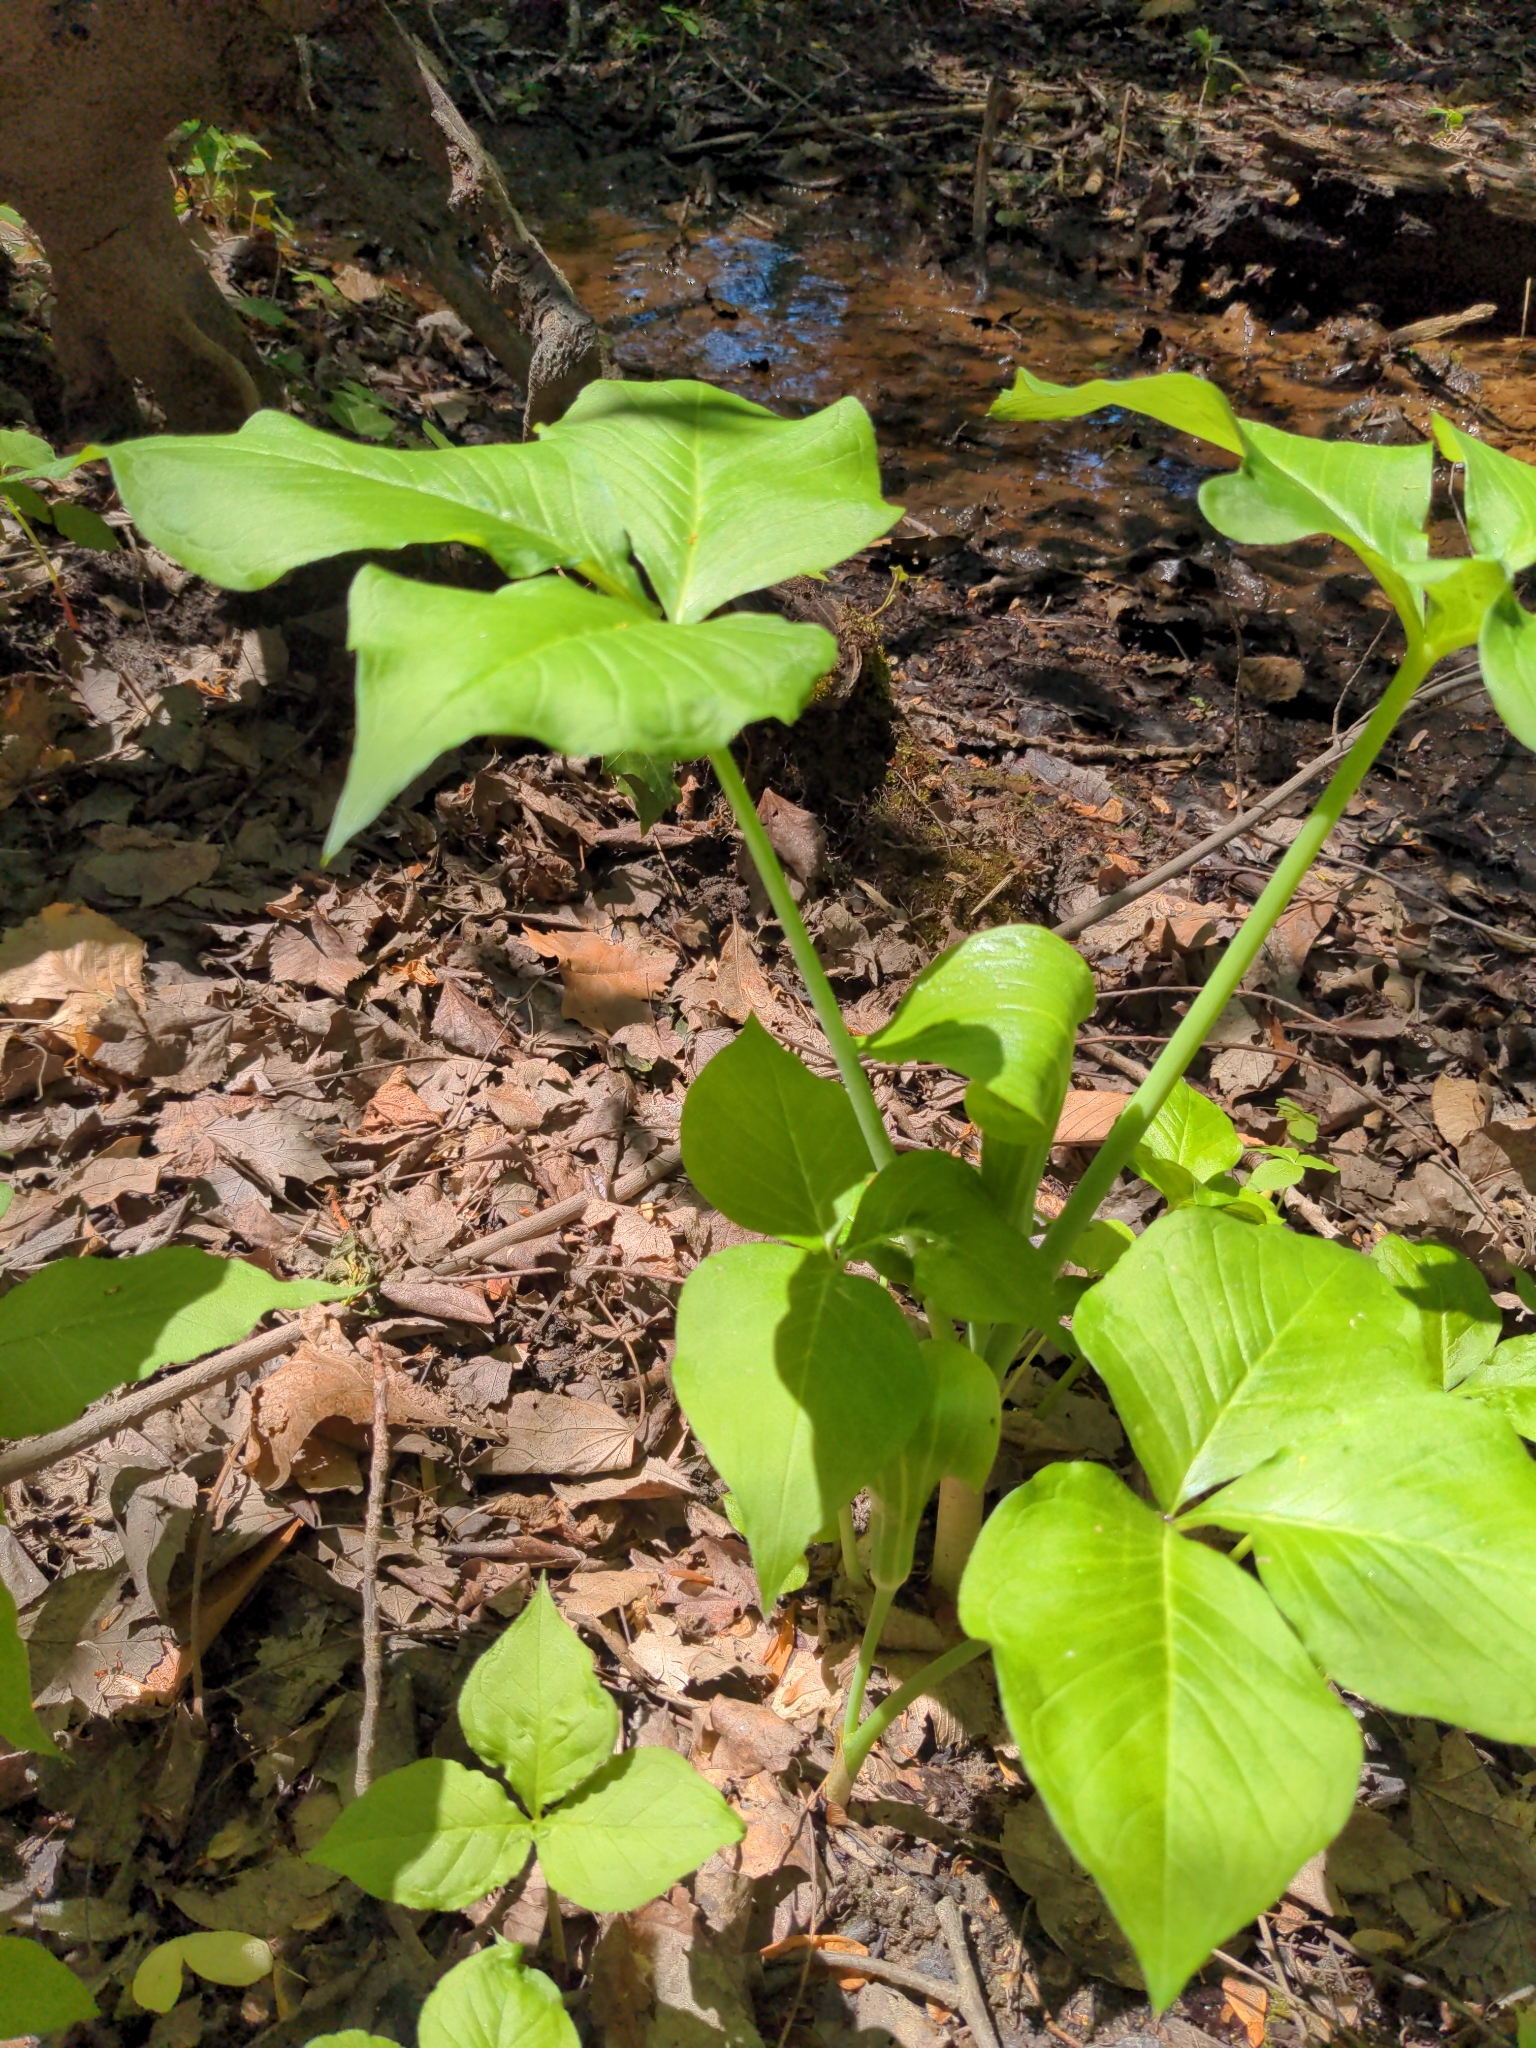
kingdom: Plantae
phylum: Tracheophyta
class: Liliopsida
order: Alismatales
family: Araceae
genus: Arisaema
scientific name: Arisaema triphyllum
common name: Jack-in-the-pulpit
